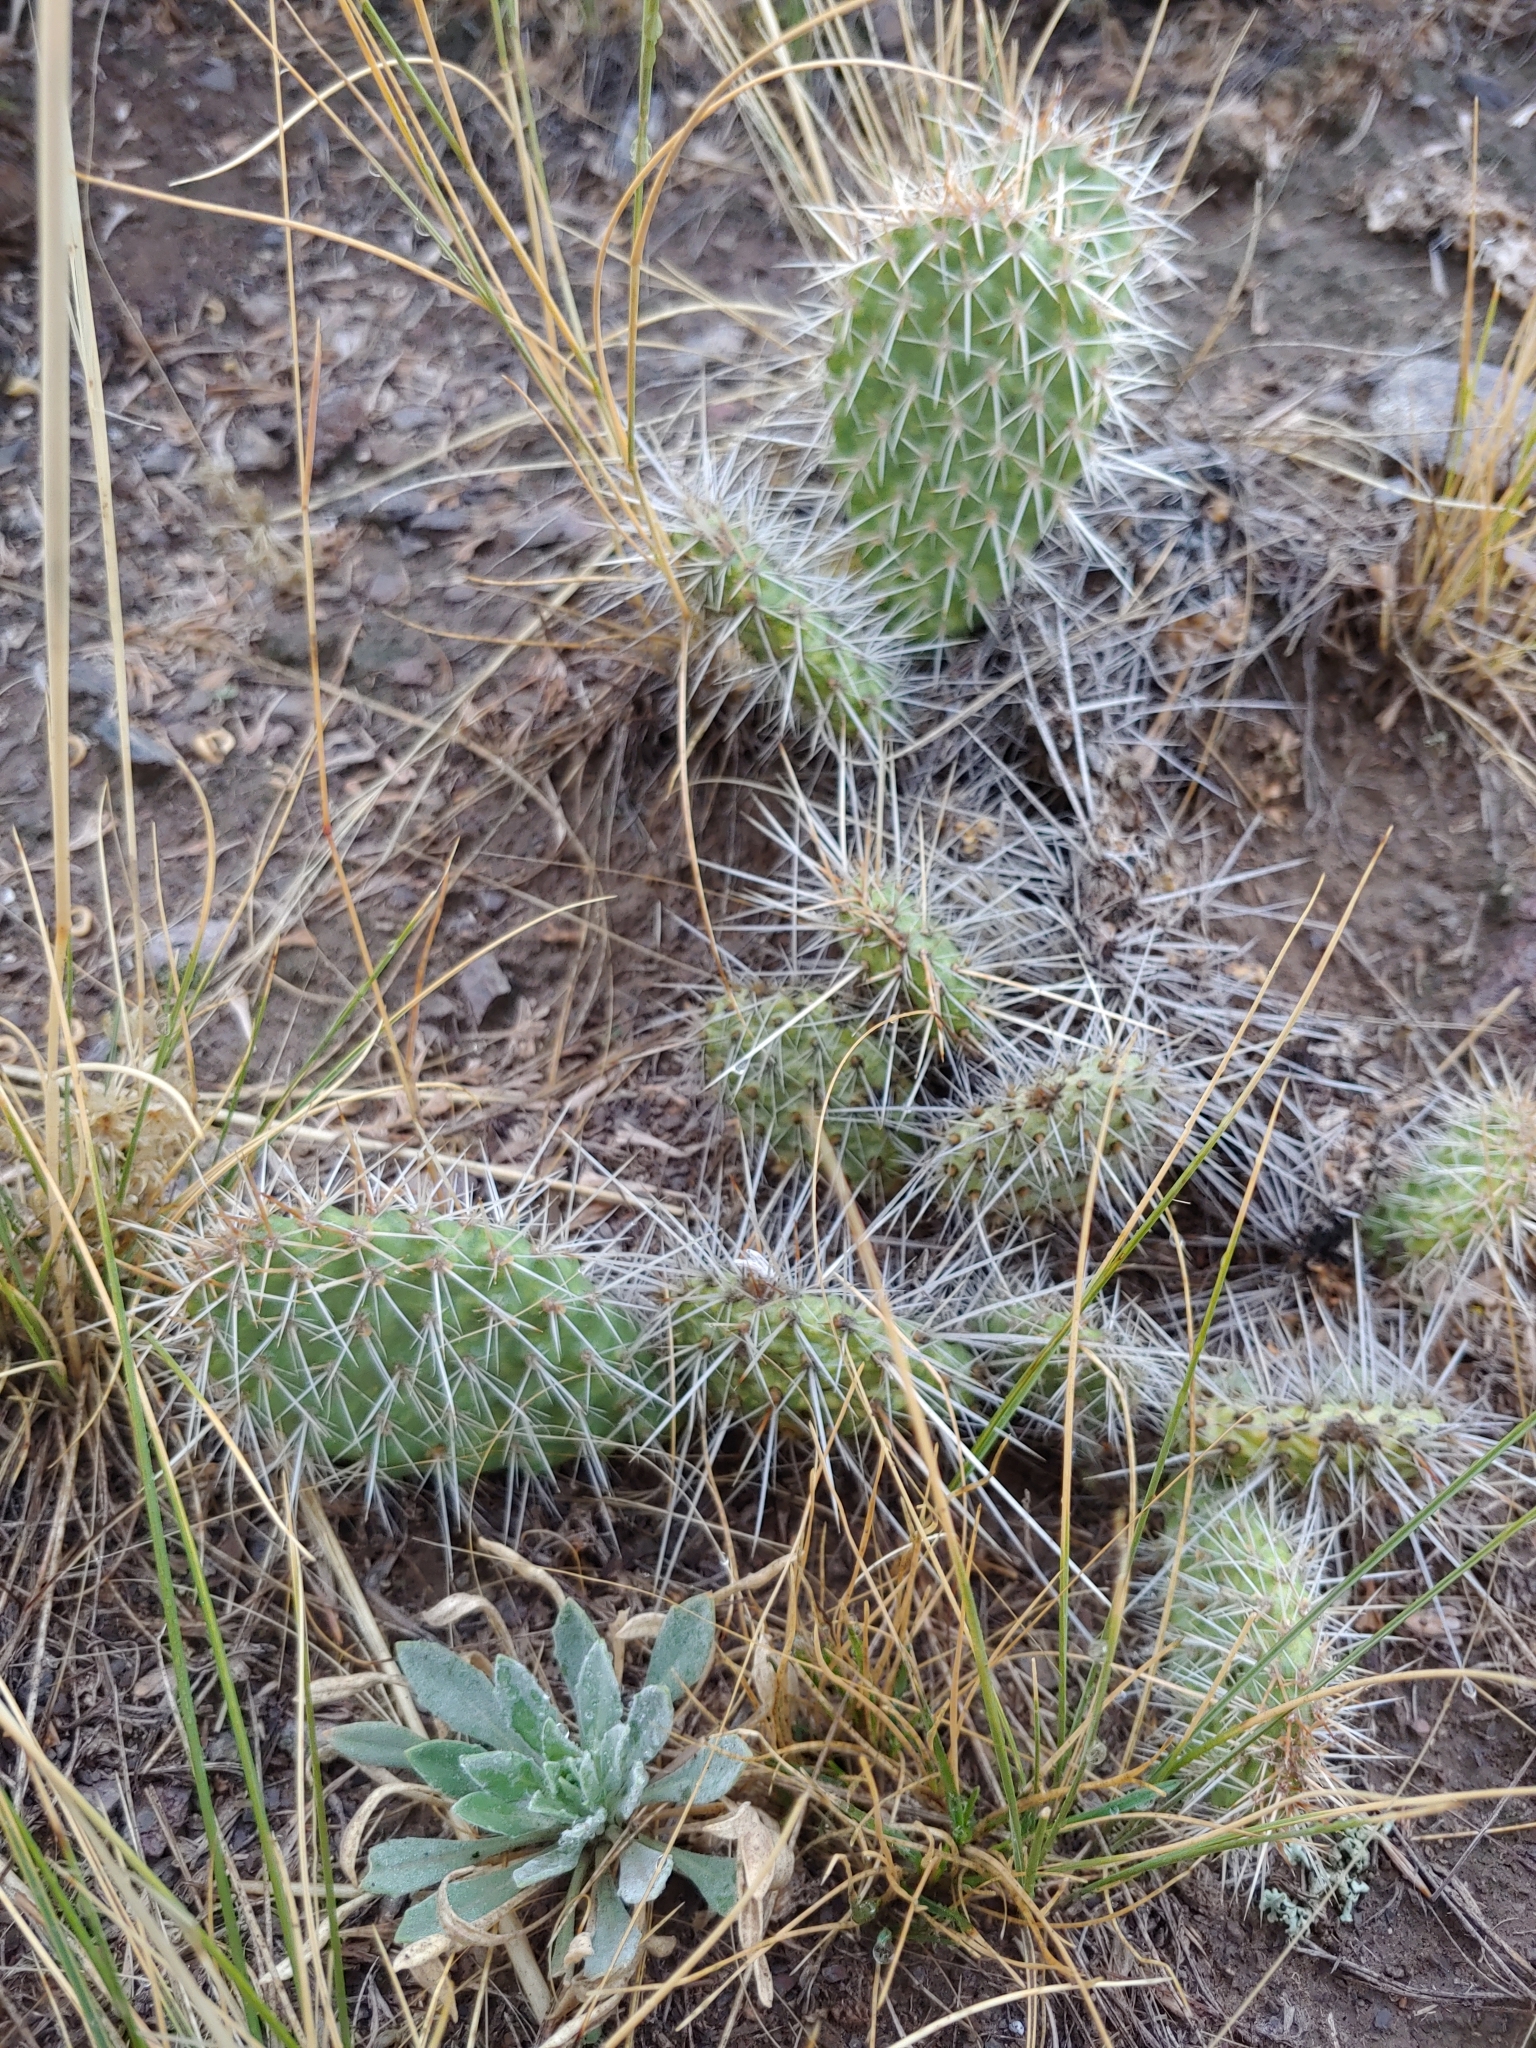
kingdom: Plantae
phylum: Tracheophyta
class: Magnoliopsida
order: Caryophyllales
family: Cactaceae
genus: Opuntia
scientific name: Opuntia polyacantha
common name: Plains prickly-pear
